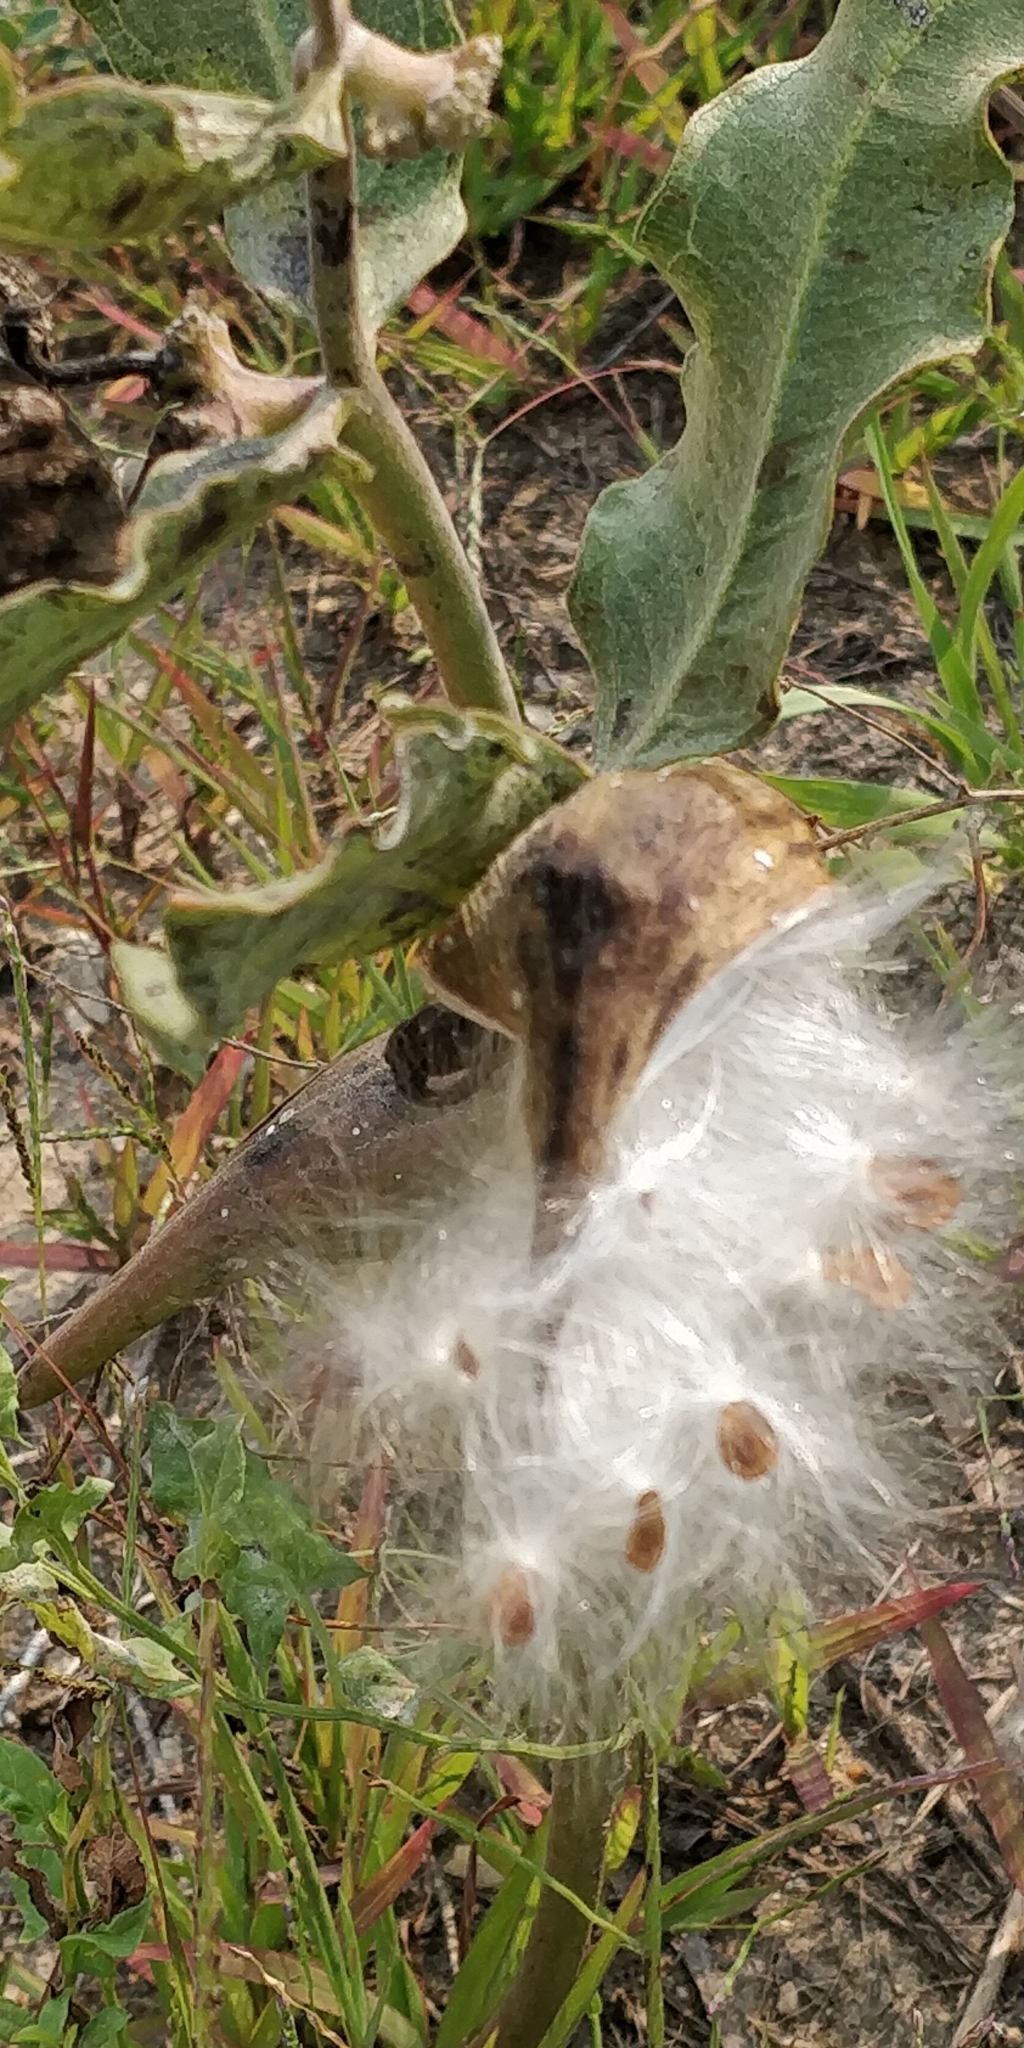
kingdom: Plantae
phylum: Tracheophyta
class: Magnoliopsida
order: Gentianales
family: Apocynaceae
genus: Asclepias
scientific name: Asclepias viridiflora
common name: Green comet milkweed
